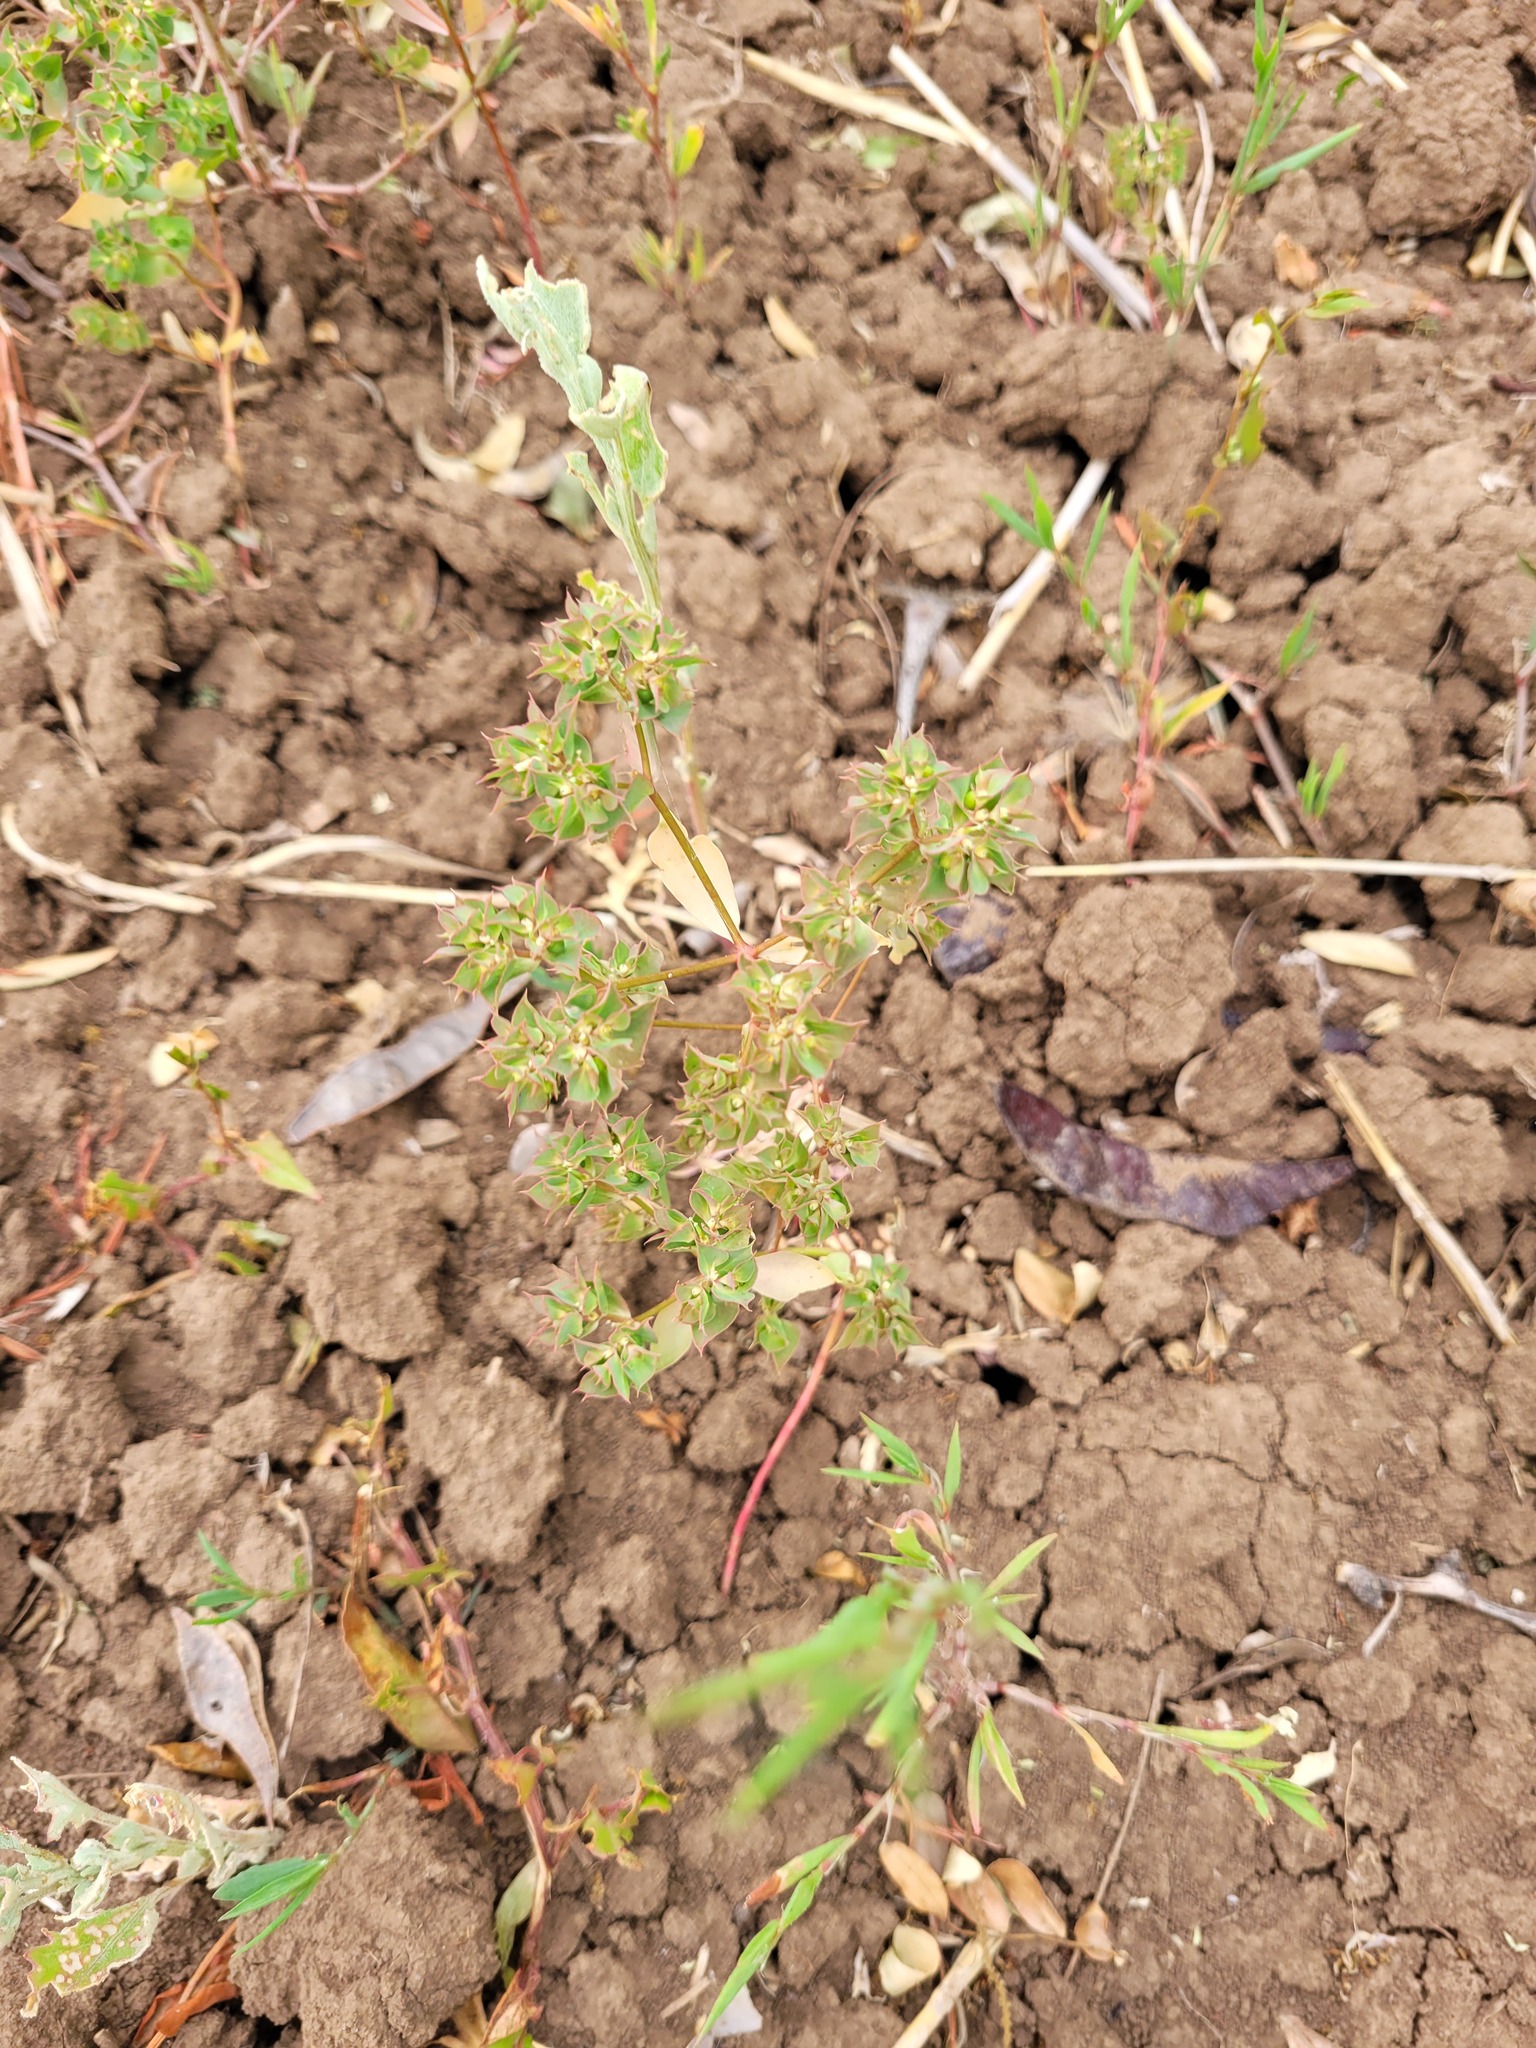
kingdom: Plantae
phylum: Tracheophyta
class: Magnoliopsida
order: Malpighiales
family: Euphorbiaceae
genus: Euphorbia
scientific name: Euphorbia falcata
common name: Sickle spurge
